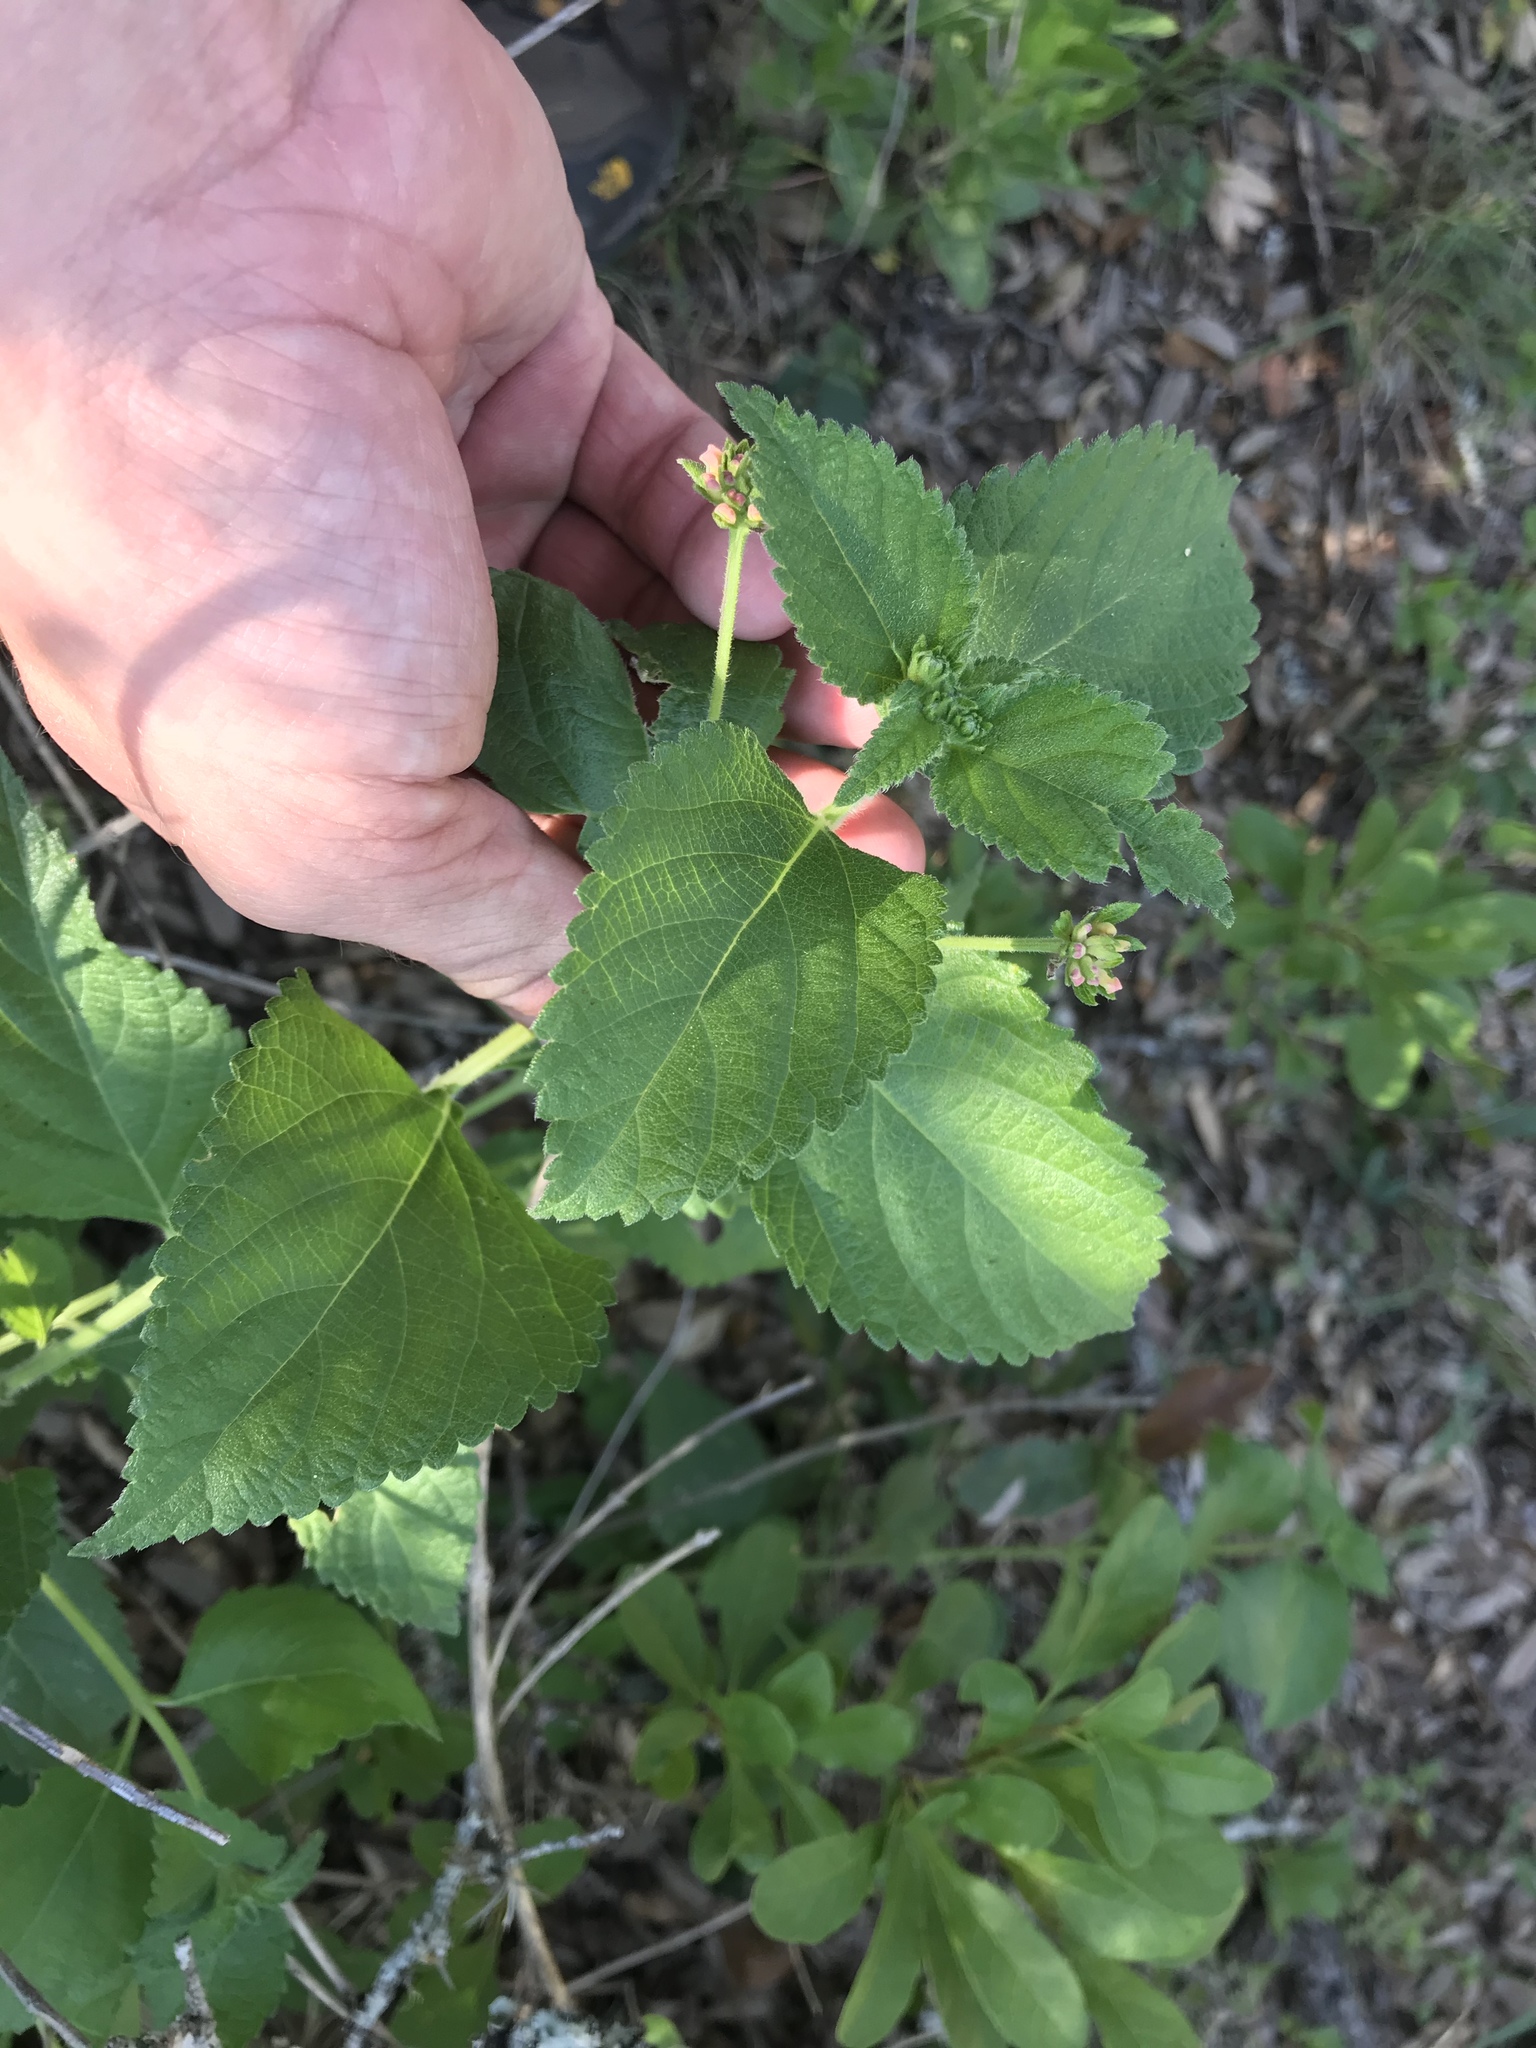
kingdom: Plantae
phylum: Tracheophyta
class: Magnoliopsida
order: Lamiales
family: Verbenaceae
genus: Lantana
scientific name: Lantana strigocamara
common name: Lantana
